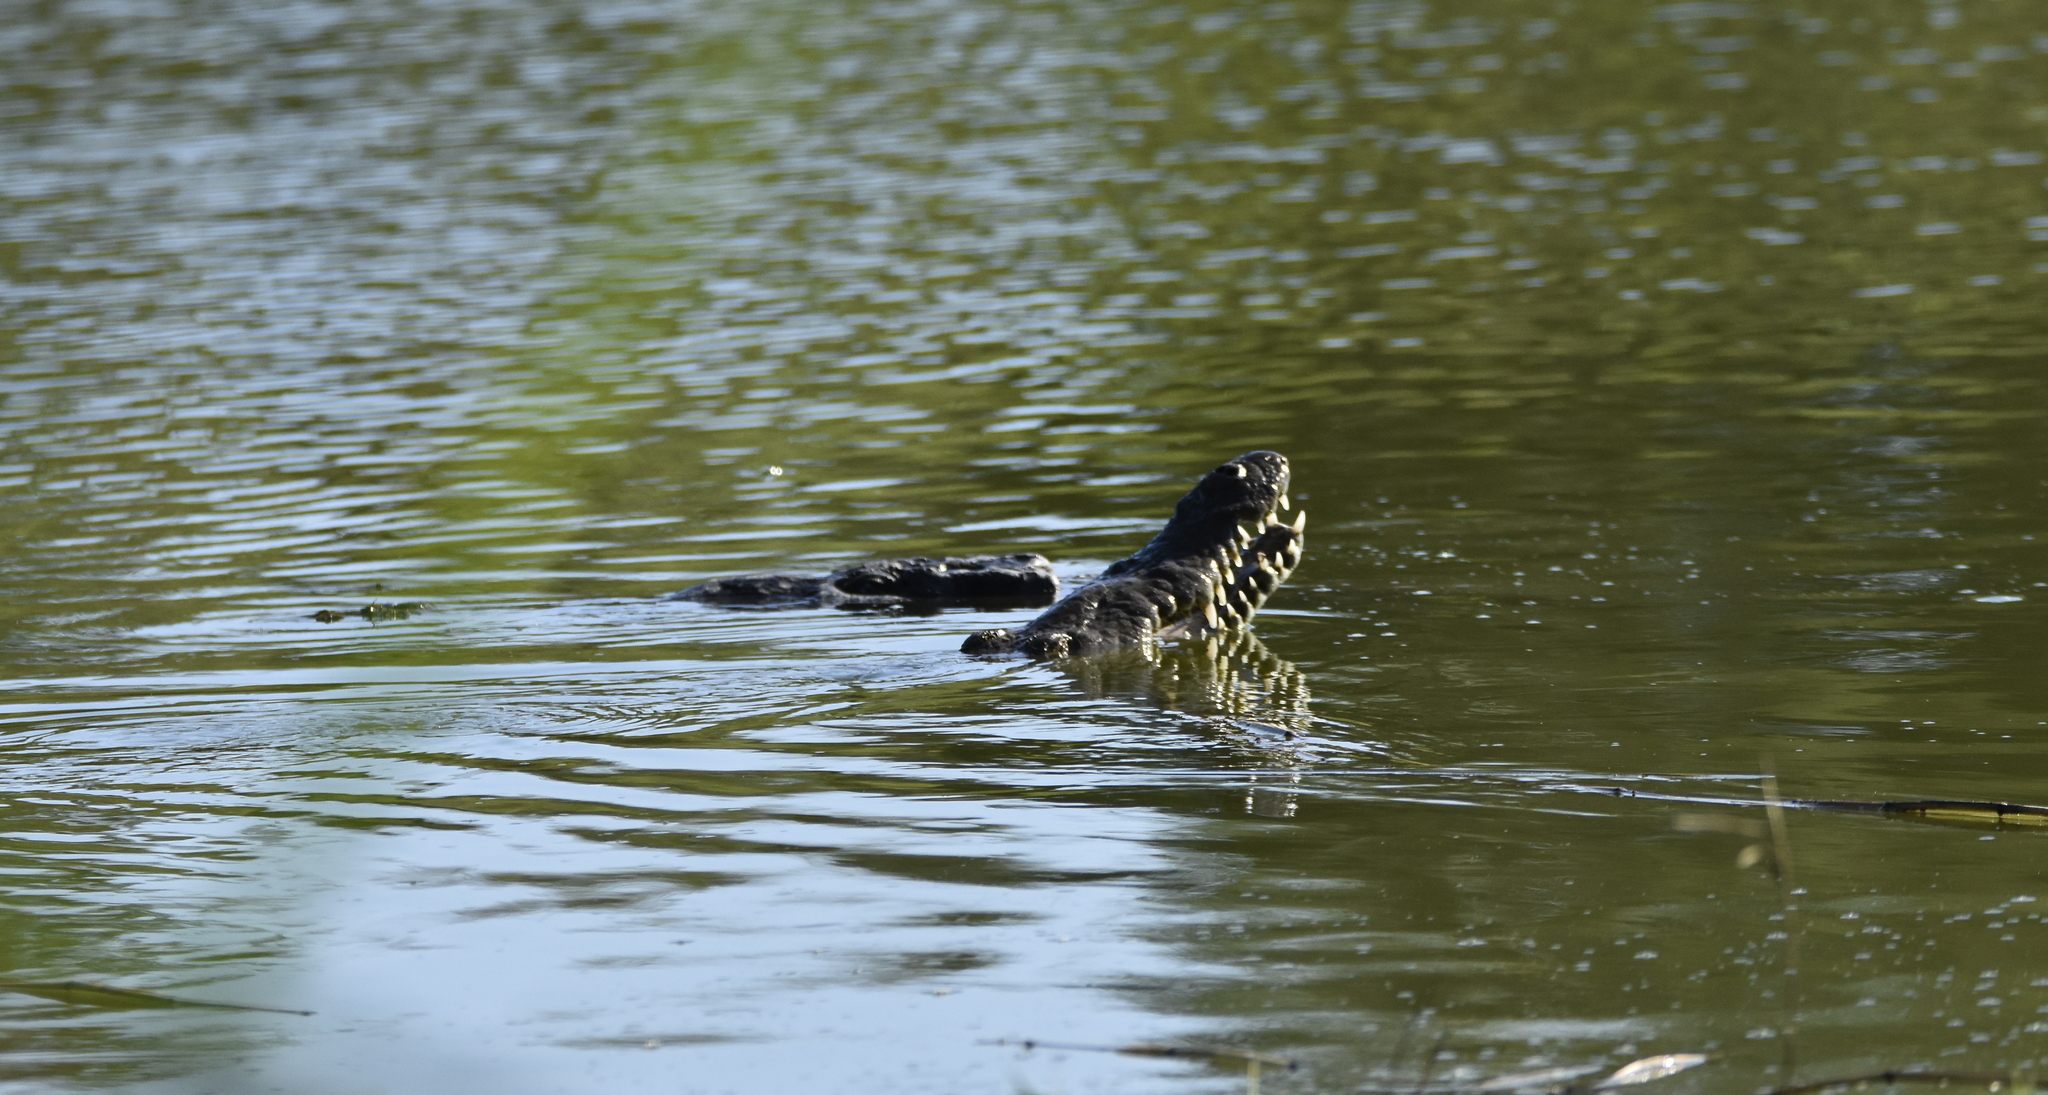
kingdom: Animalia
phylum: Chordata
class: Crocodylia
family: Crocodylidae
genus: Crocodylus
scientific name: Crocodylus acutus
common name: American crocodile
